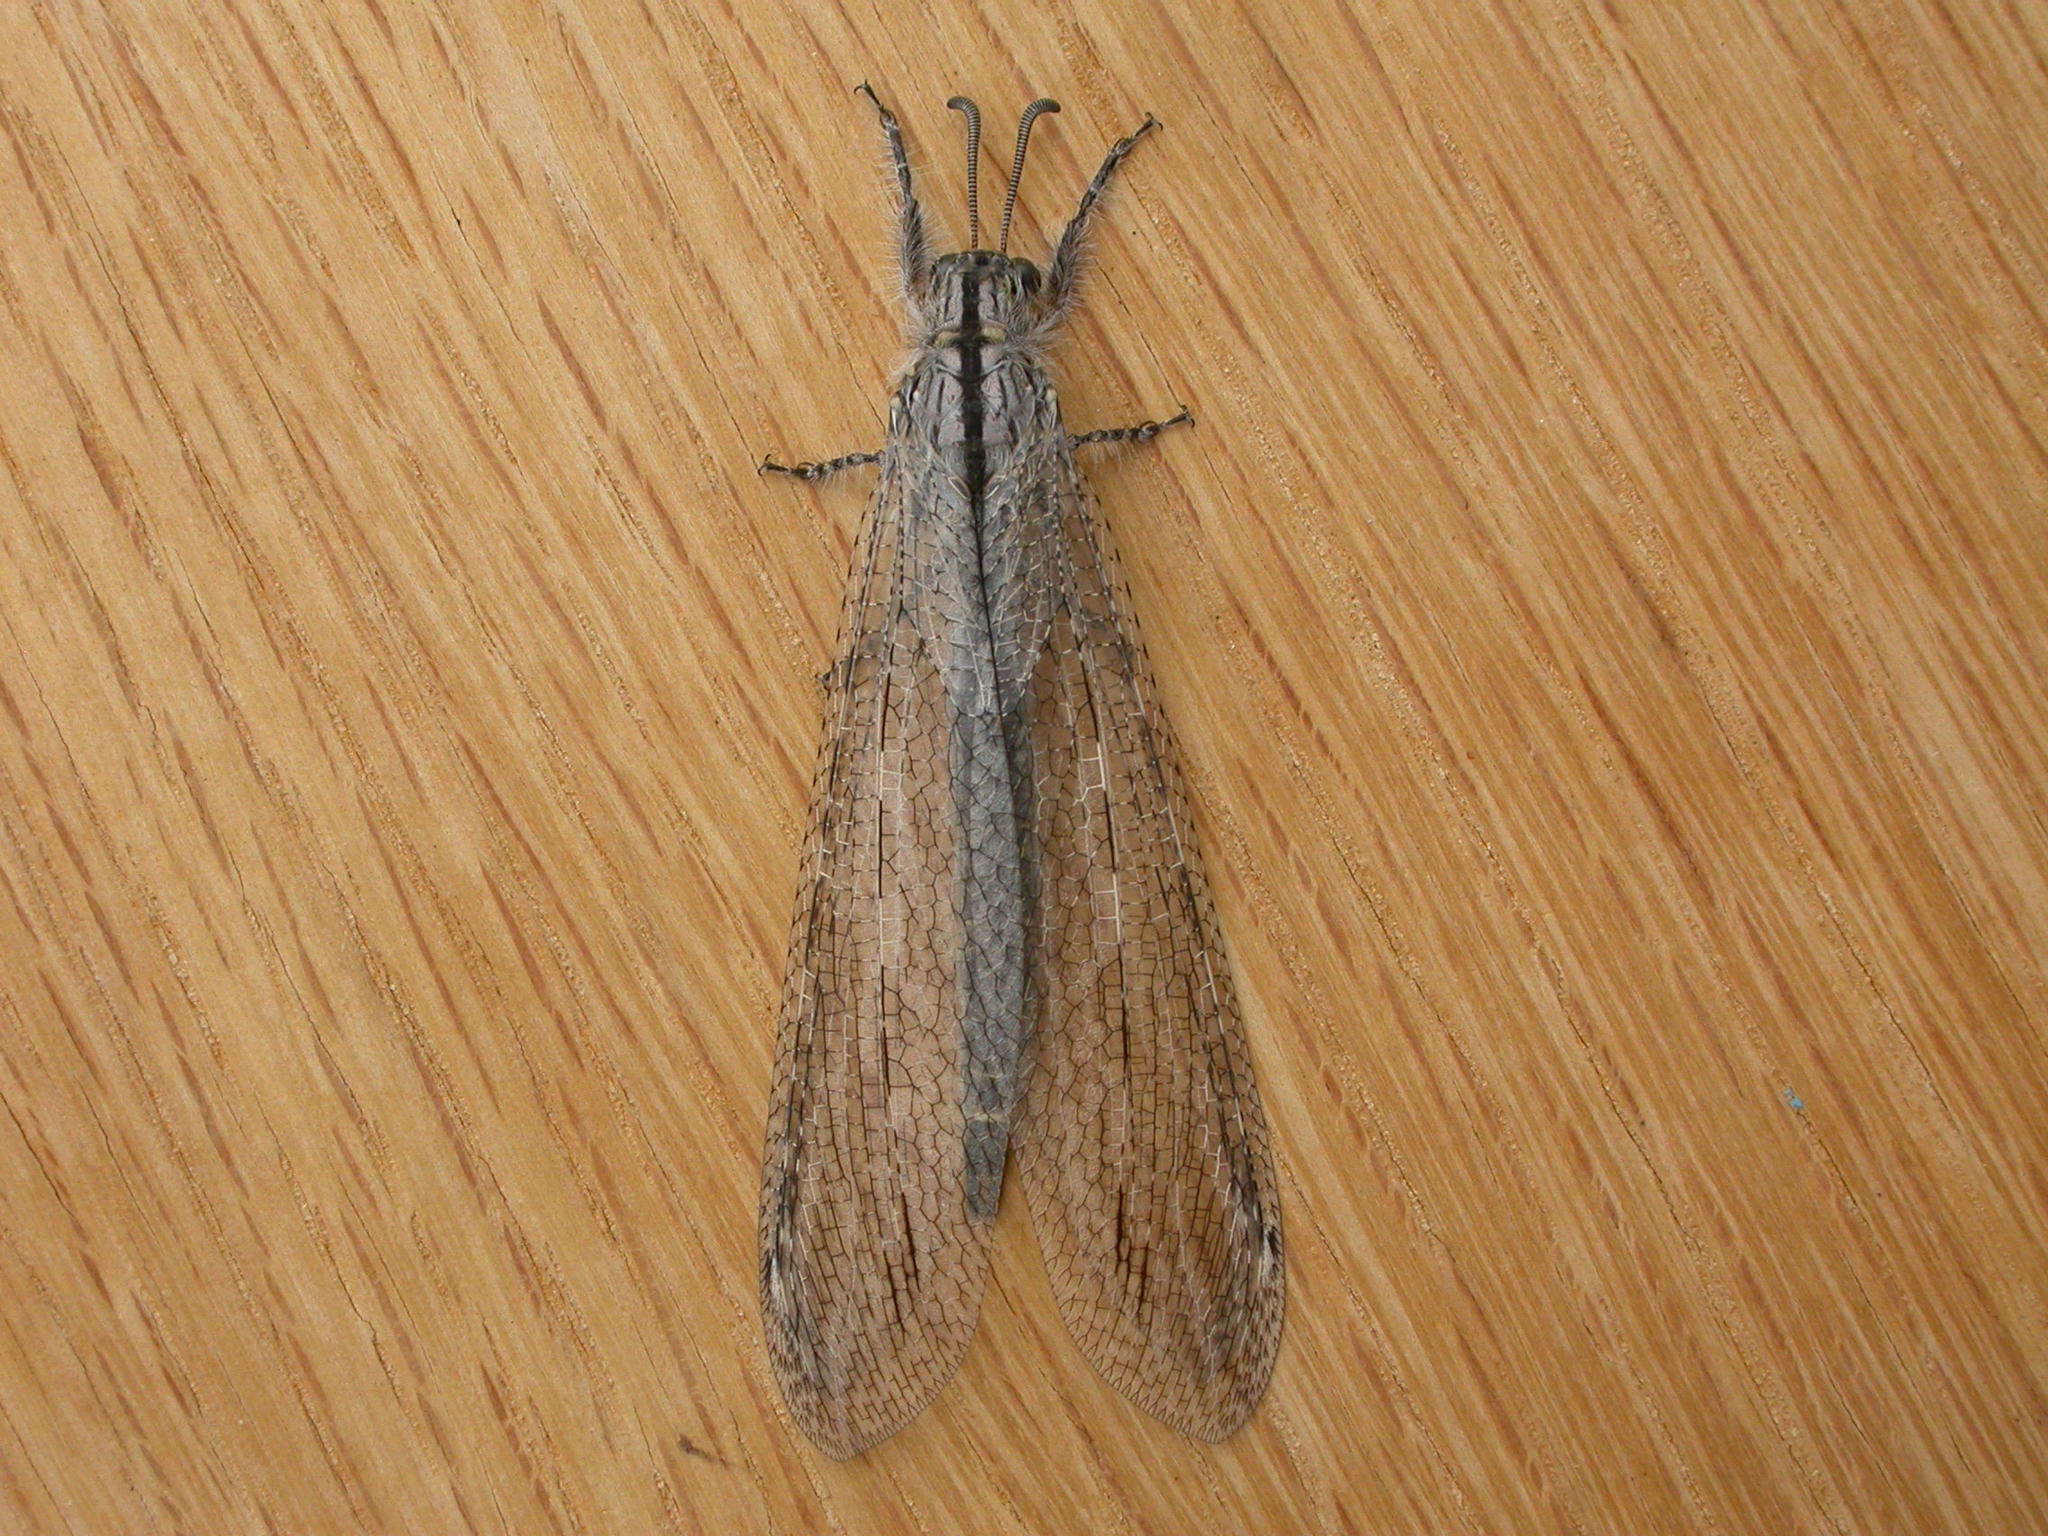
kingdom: Animalia
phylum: Arthropoda
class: Insecta
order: Neuroptera
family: Myrmeleontidae
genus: Heoclisis
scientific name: Heoclisis fundata
